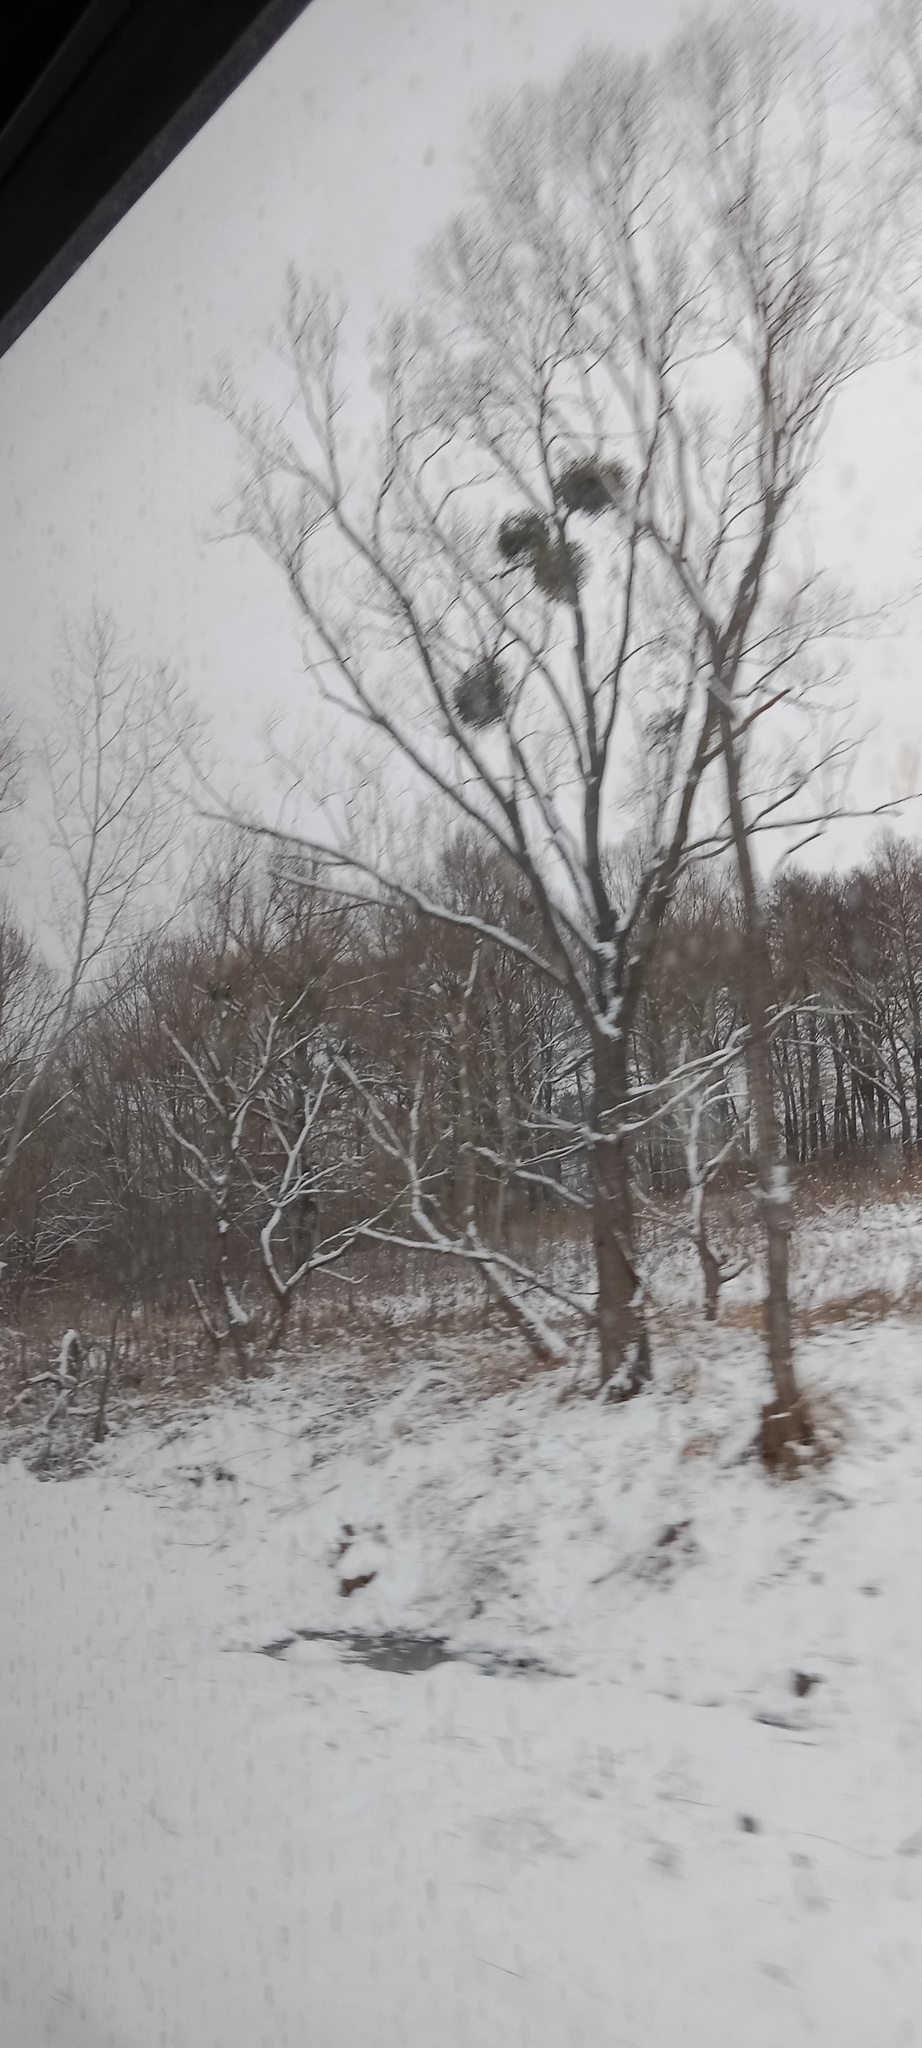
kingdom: Plantae
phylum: Tracheophyta
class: Magnoliopsida
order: Santalales
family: Viscaceae
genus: Viscum
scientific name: Viscum album
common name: Mistletoe
